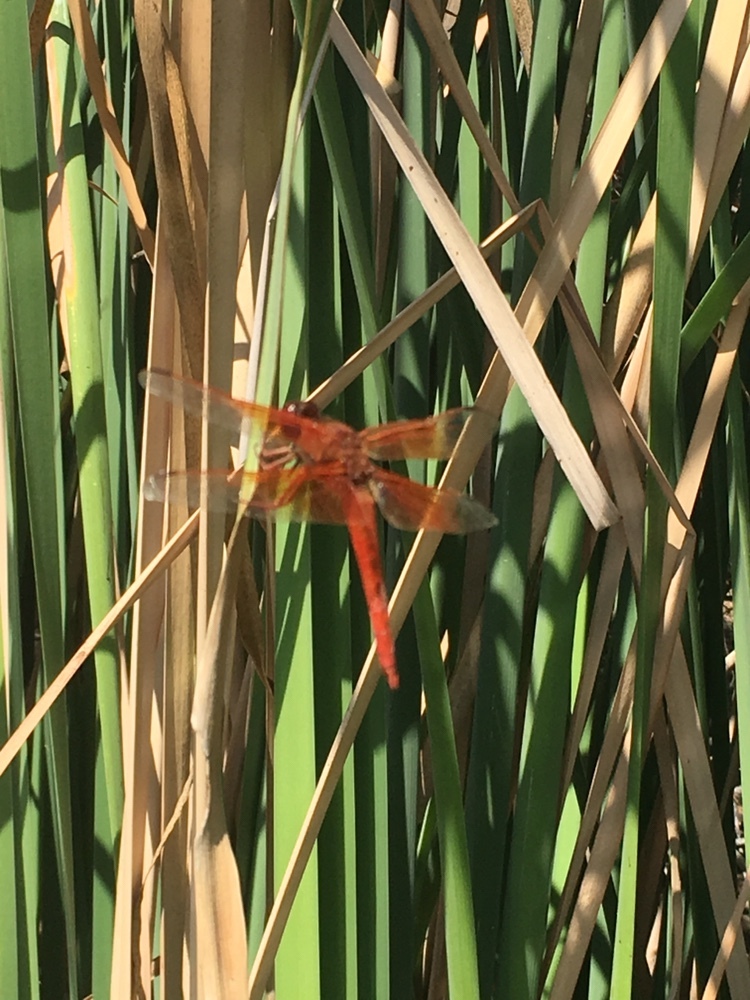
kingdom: Animalia
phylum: Arthropoda
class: Insecta
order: Odonata
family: Libellulidae
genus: Libellula
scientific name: Libellula saturata
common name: Flame skimmer
